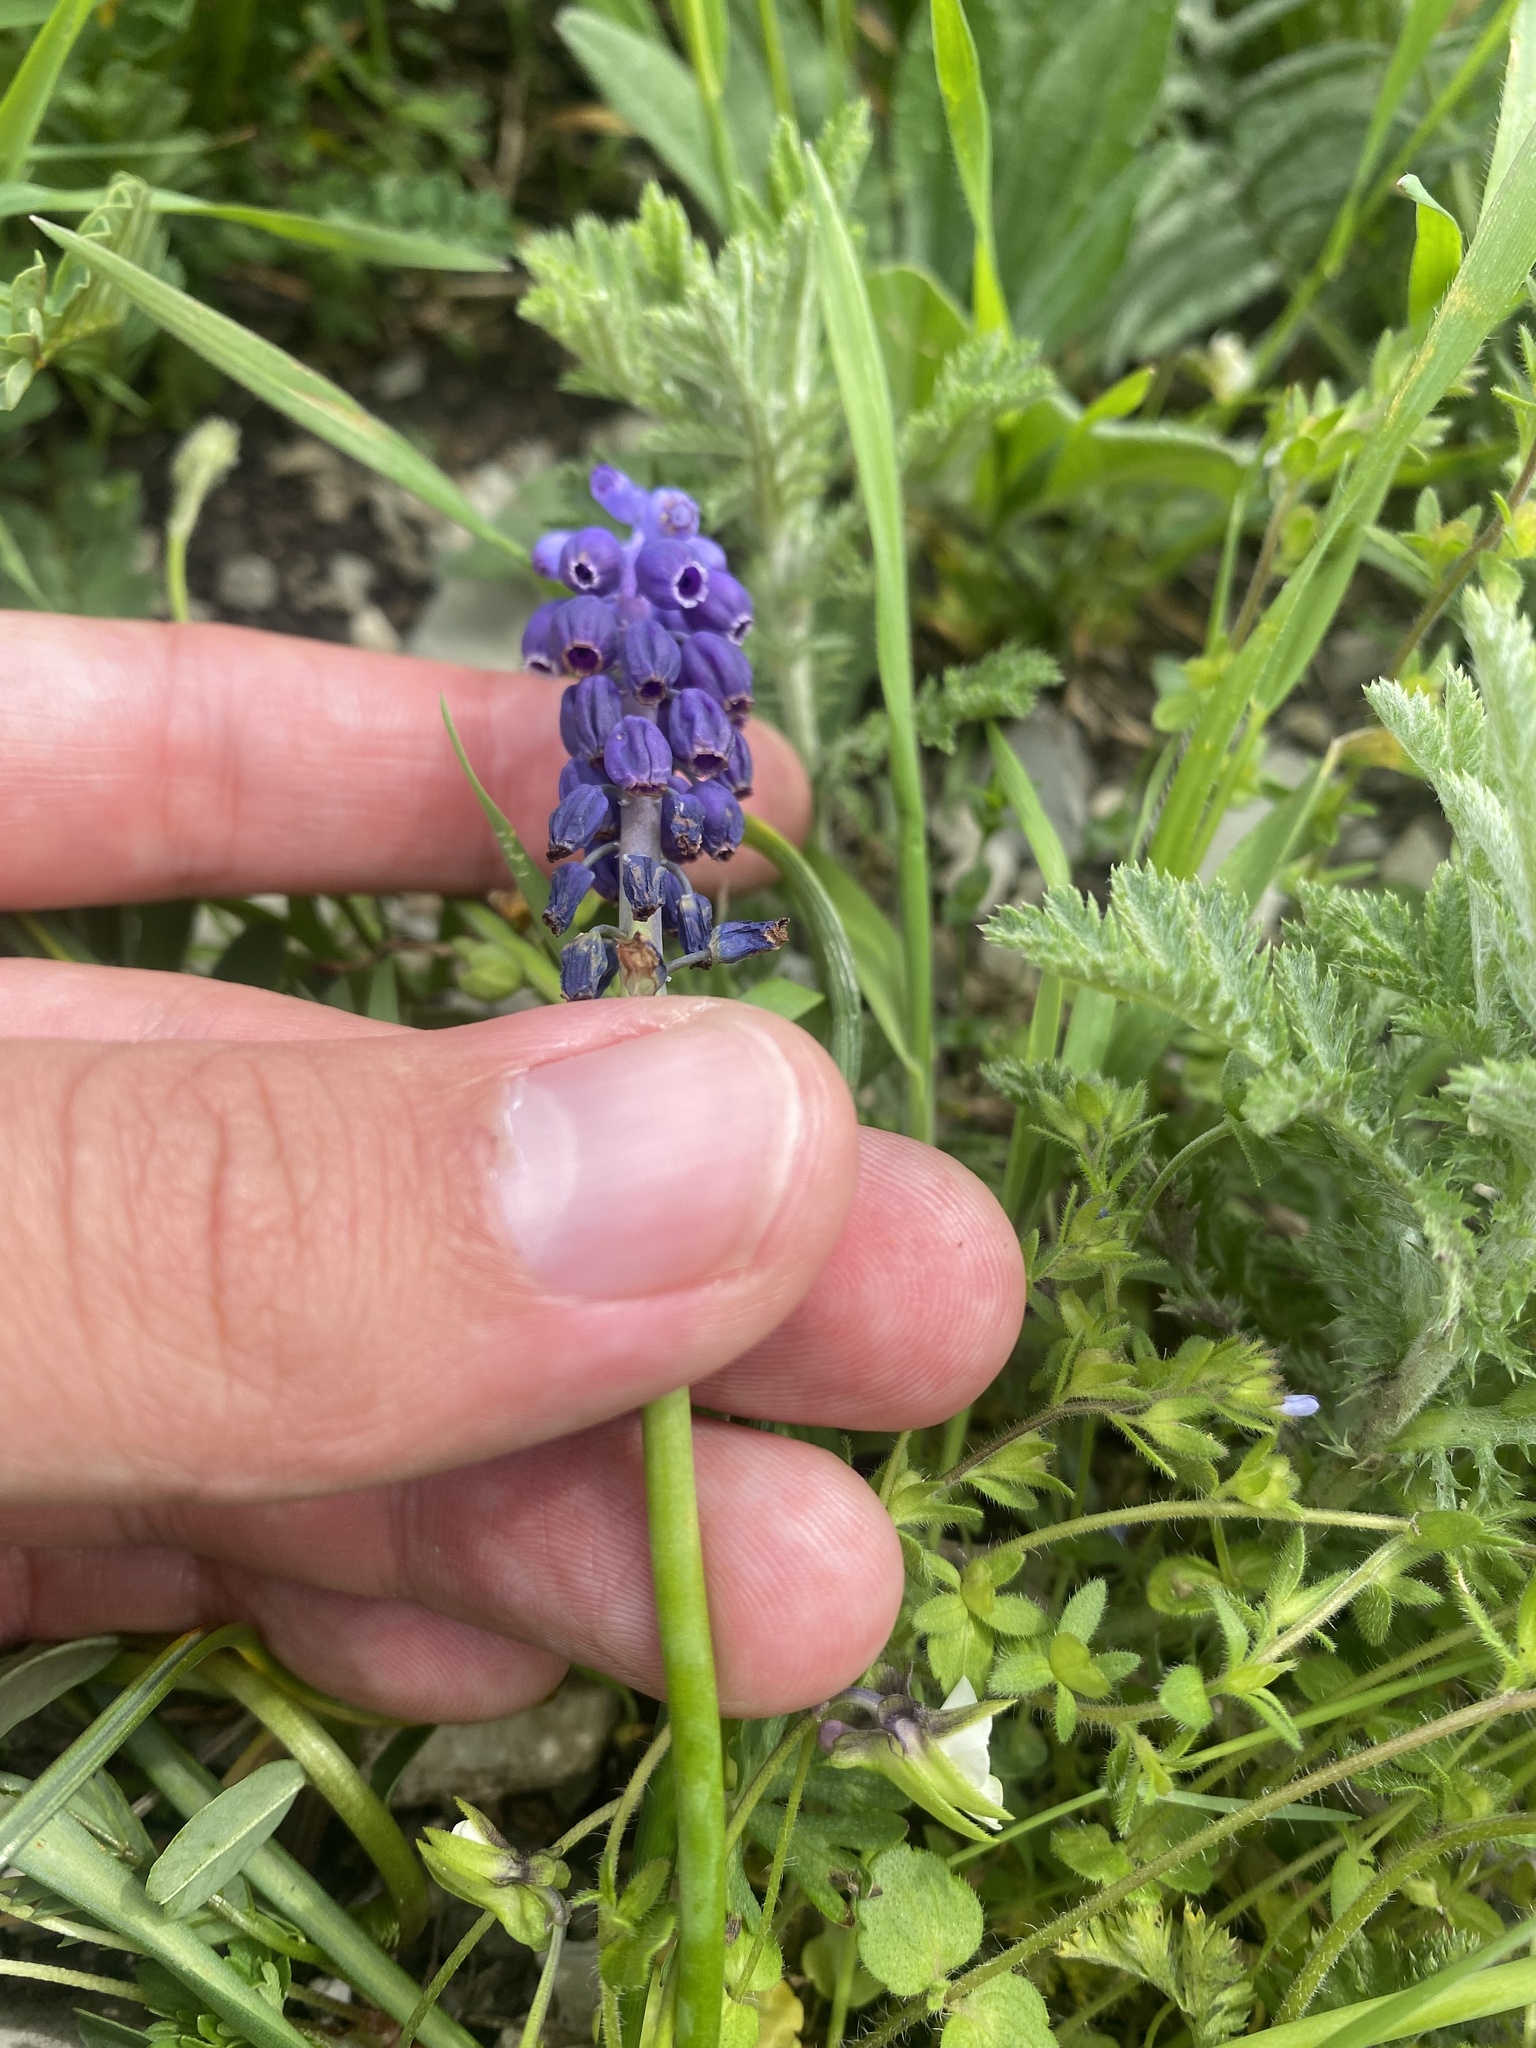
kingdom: Plantae
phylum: Tracheophyta
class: Liliopsida
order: Asparagales
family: Asparagaceae
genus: Muscari
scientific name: Muscari neglectum
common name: Grape-hyacinth
